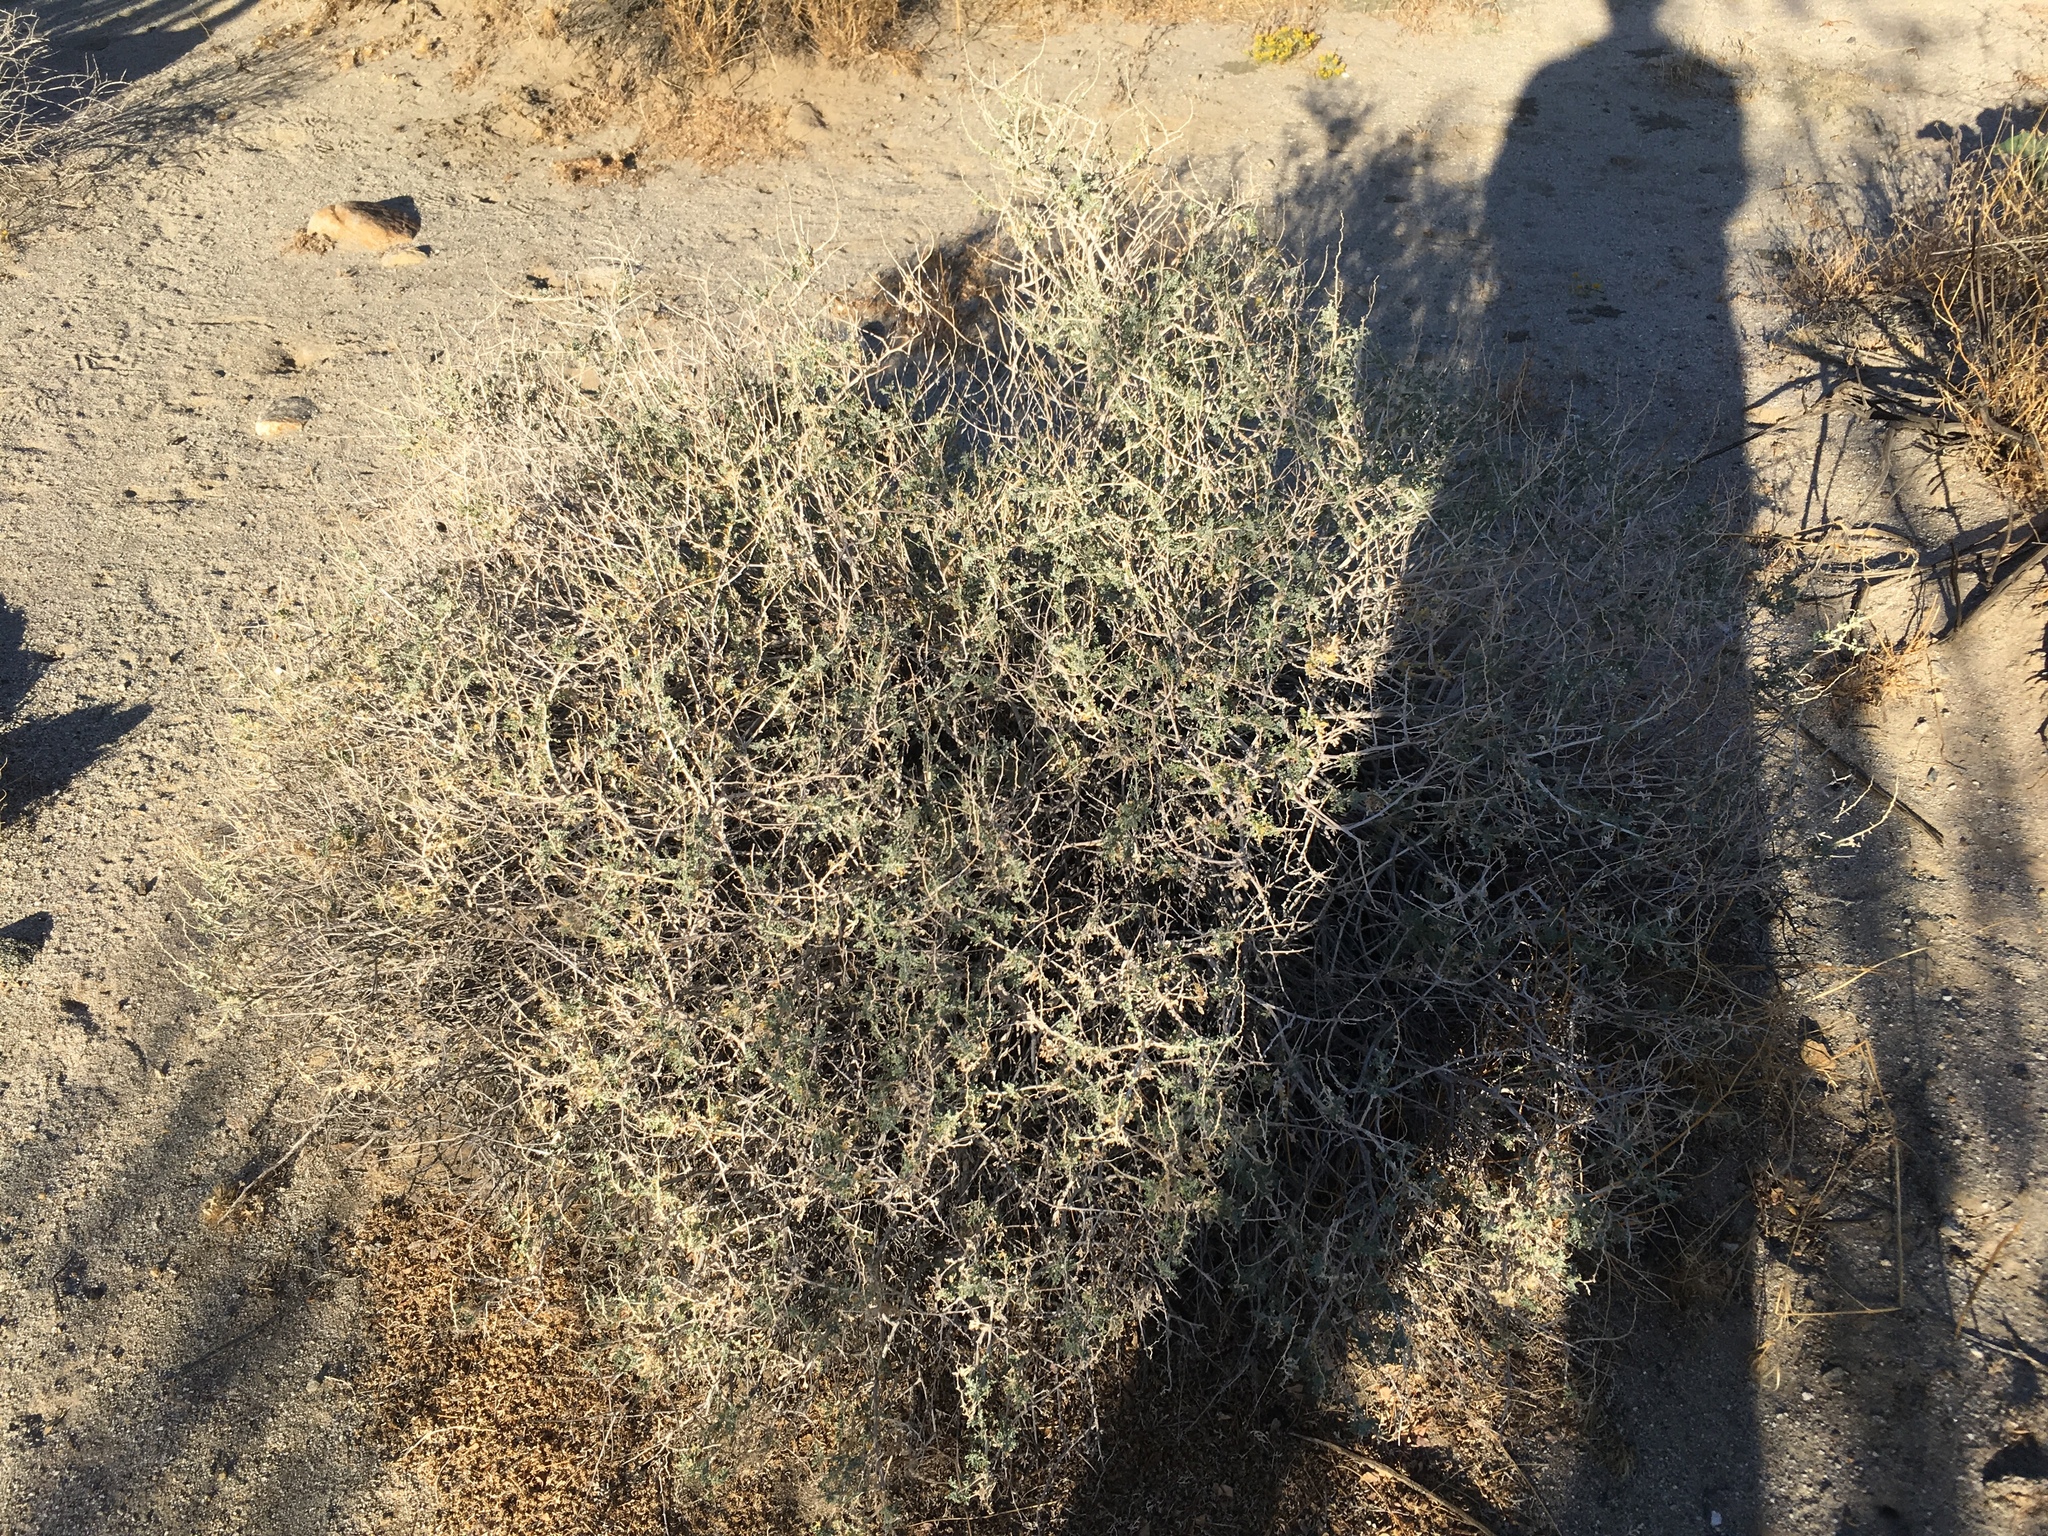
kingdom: Plantae
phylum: Tracheophyta
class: Magnoliopsida
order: Asterales
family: Asteraceae
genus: Ambrosia
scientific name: Ambrosia dumosa
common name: Bur-sage
